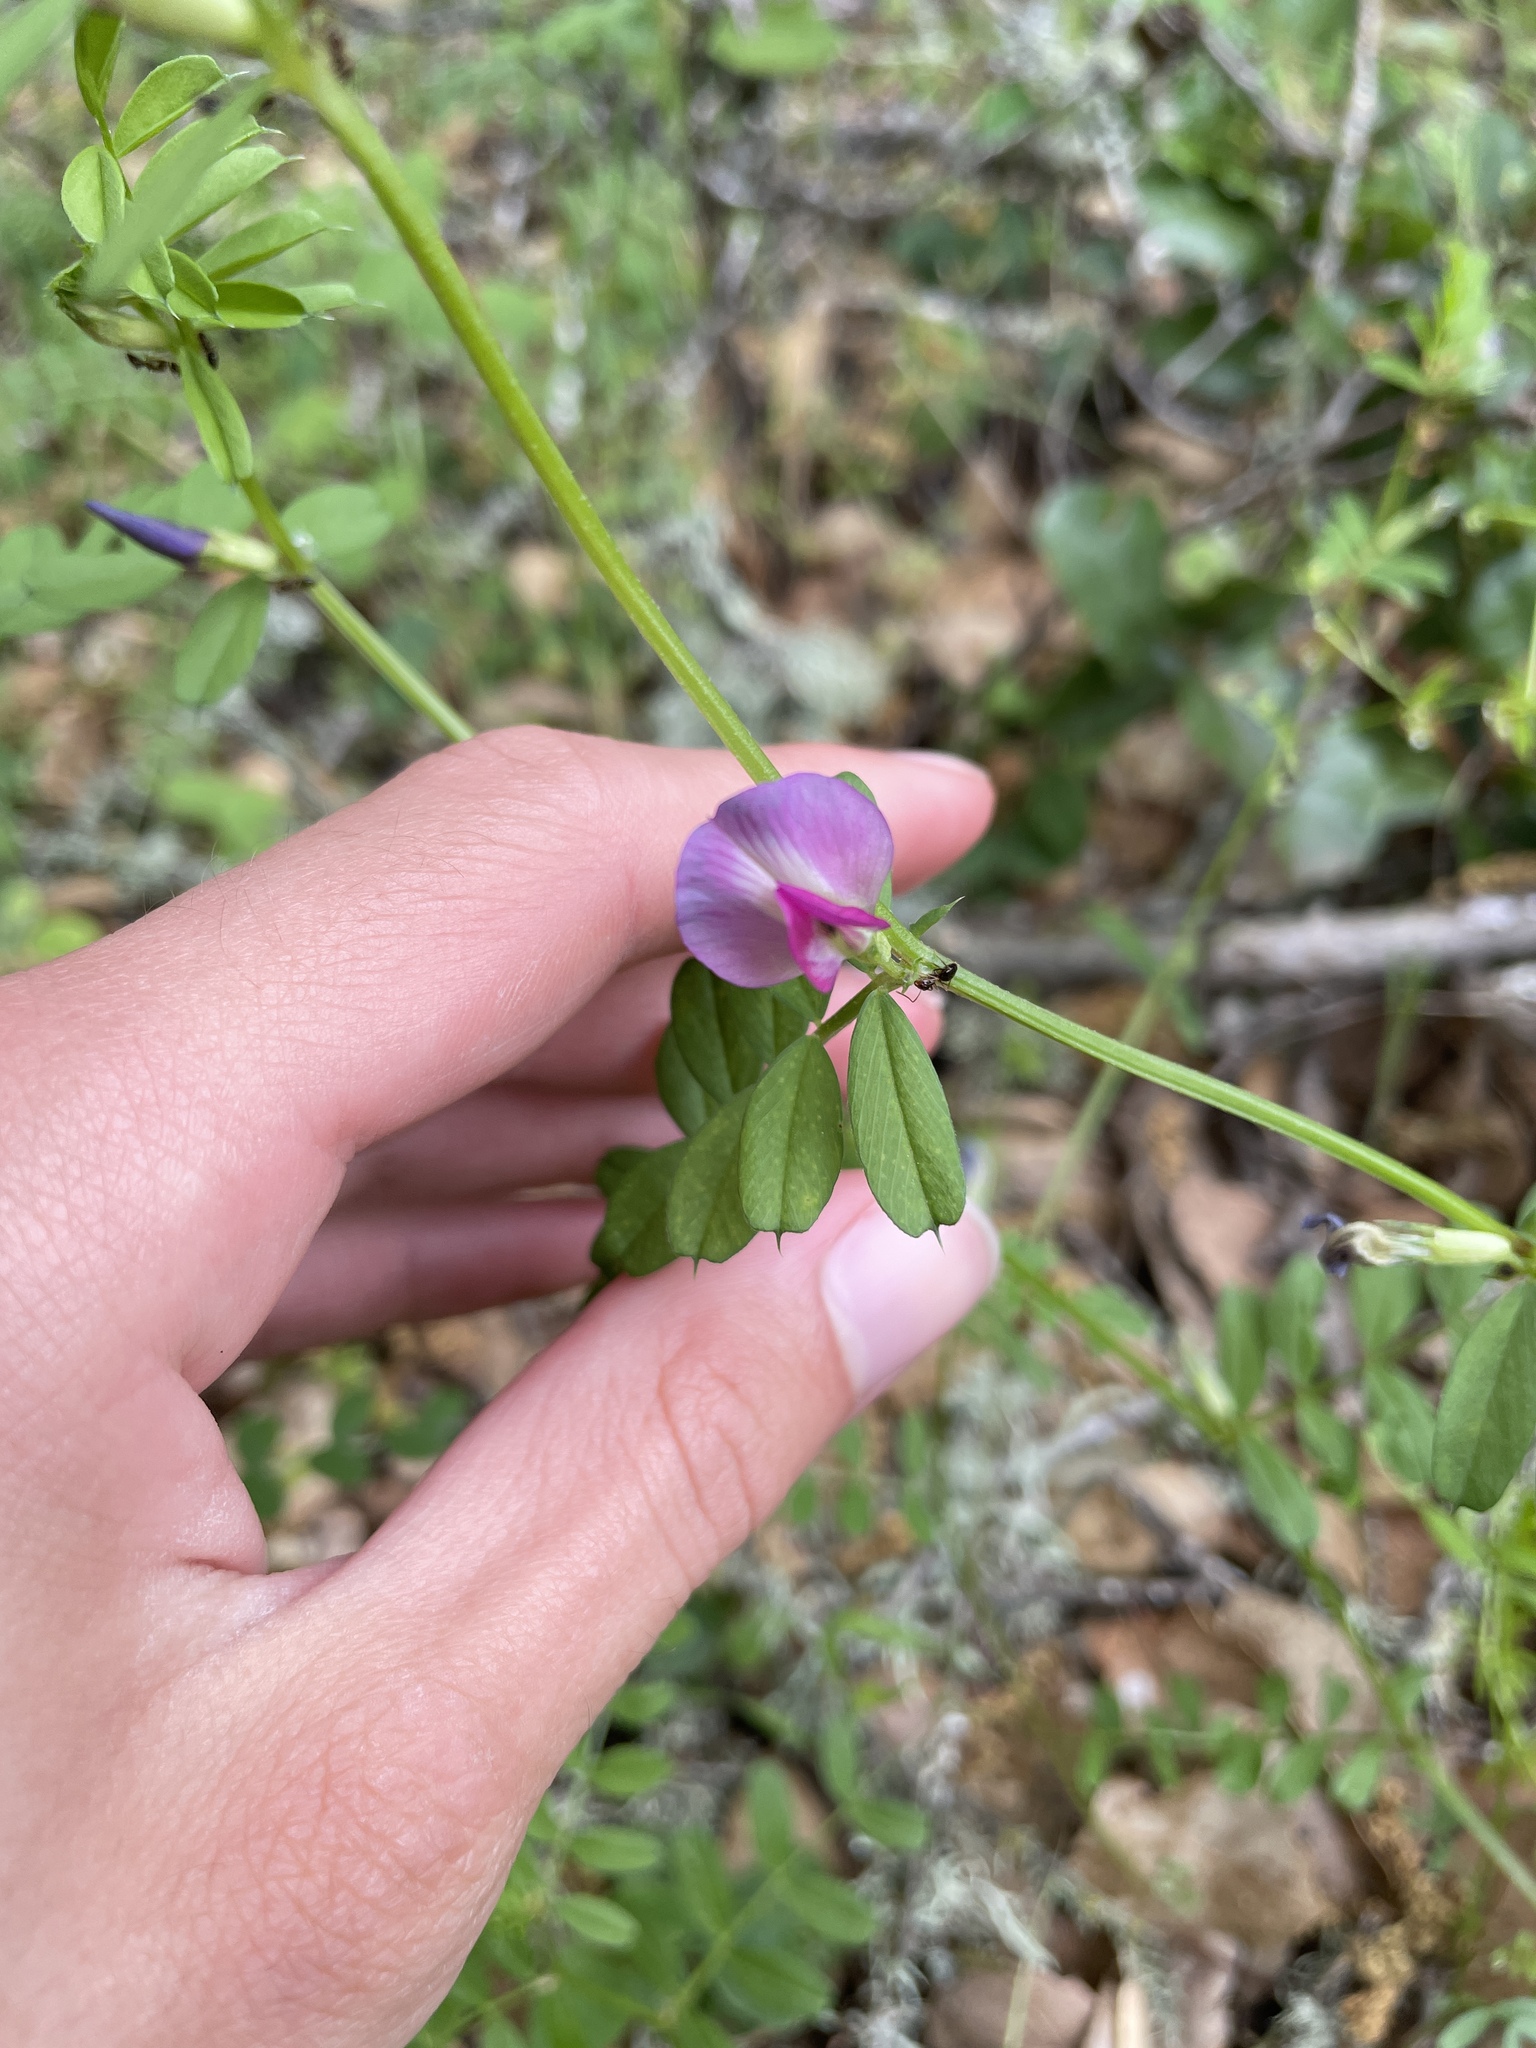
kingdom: Plantae
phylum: Tracheophyta
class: Magnoliopsida
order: Fabales
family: Fabaceae
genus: Vicia
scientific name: Vicia sativa
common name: Garden vetch
